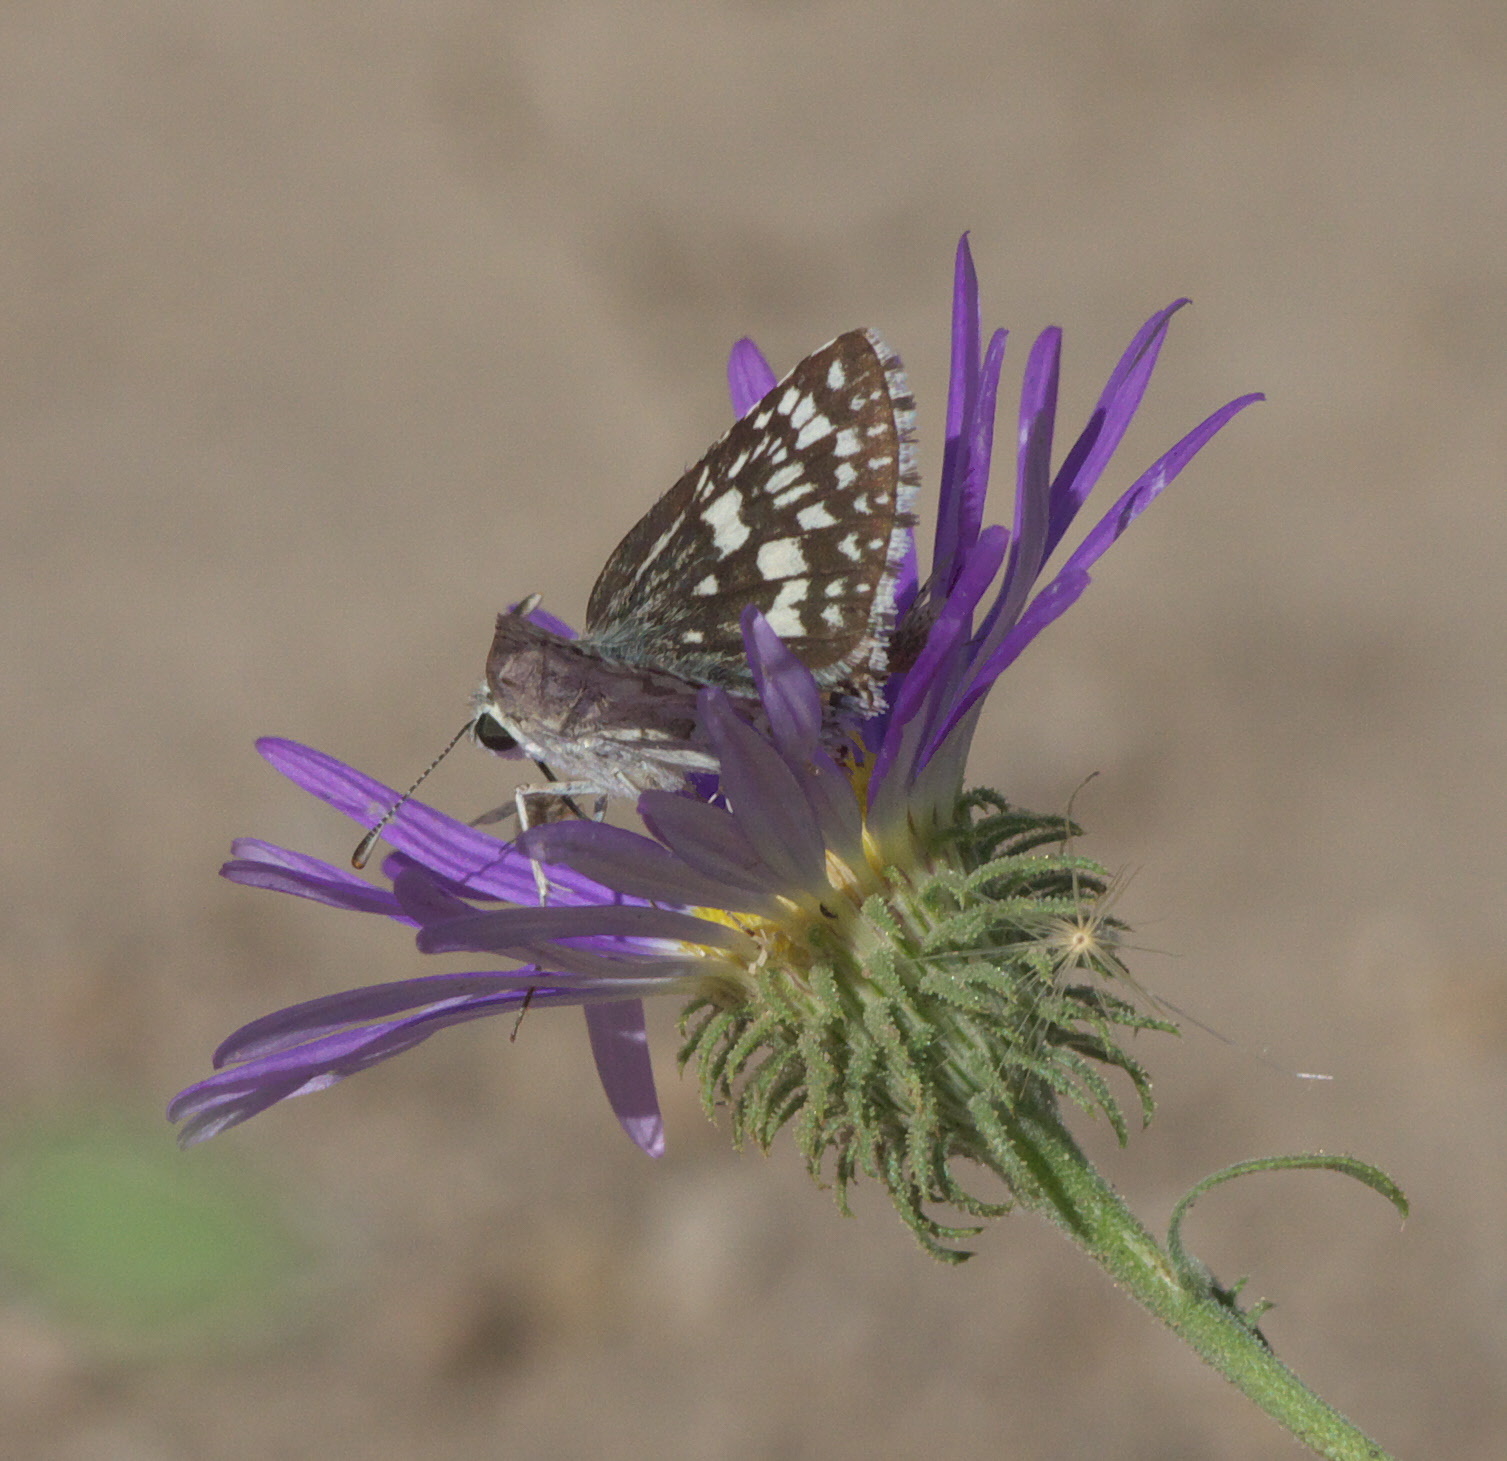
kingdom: Animalia
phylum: Arthropoda
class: Insecta
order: Lepidoptera
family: Hesperiidae
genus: Burnsius
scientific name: Burnsius communis
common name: Common checkered-skipper
